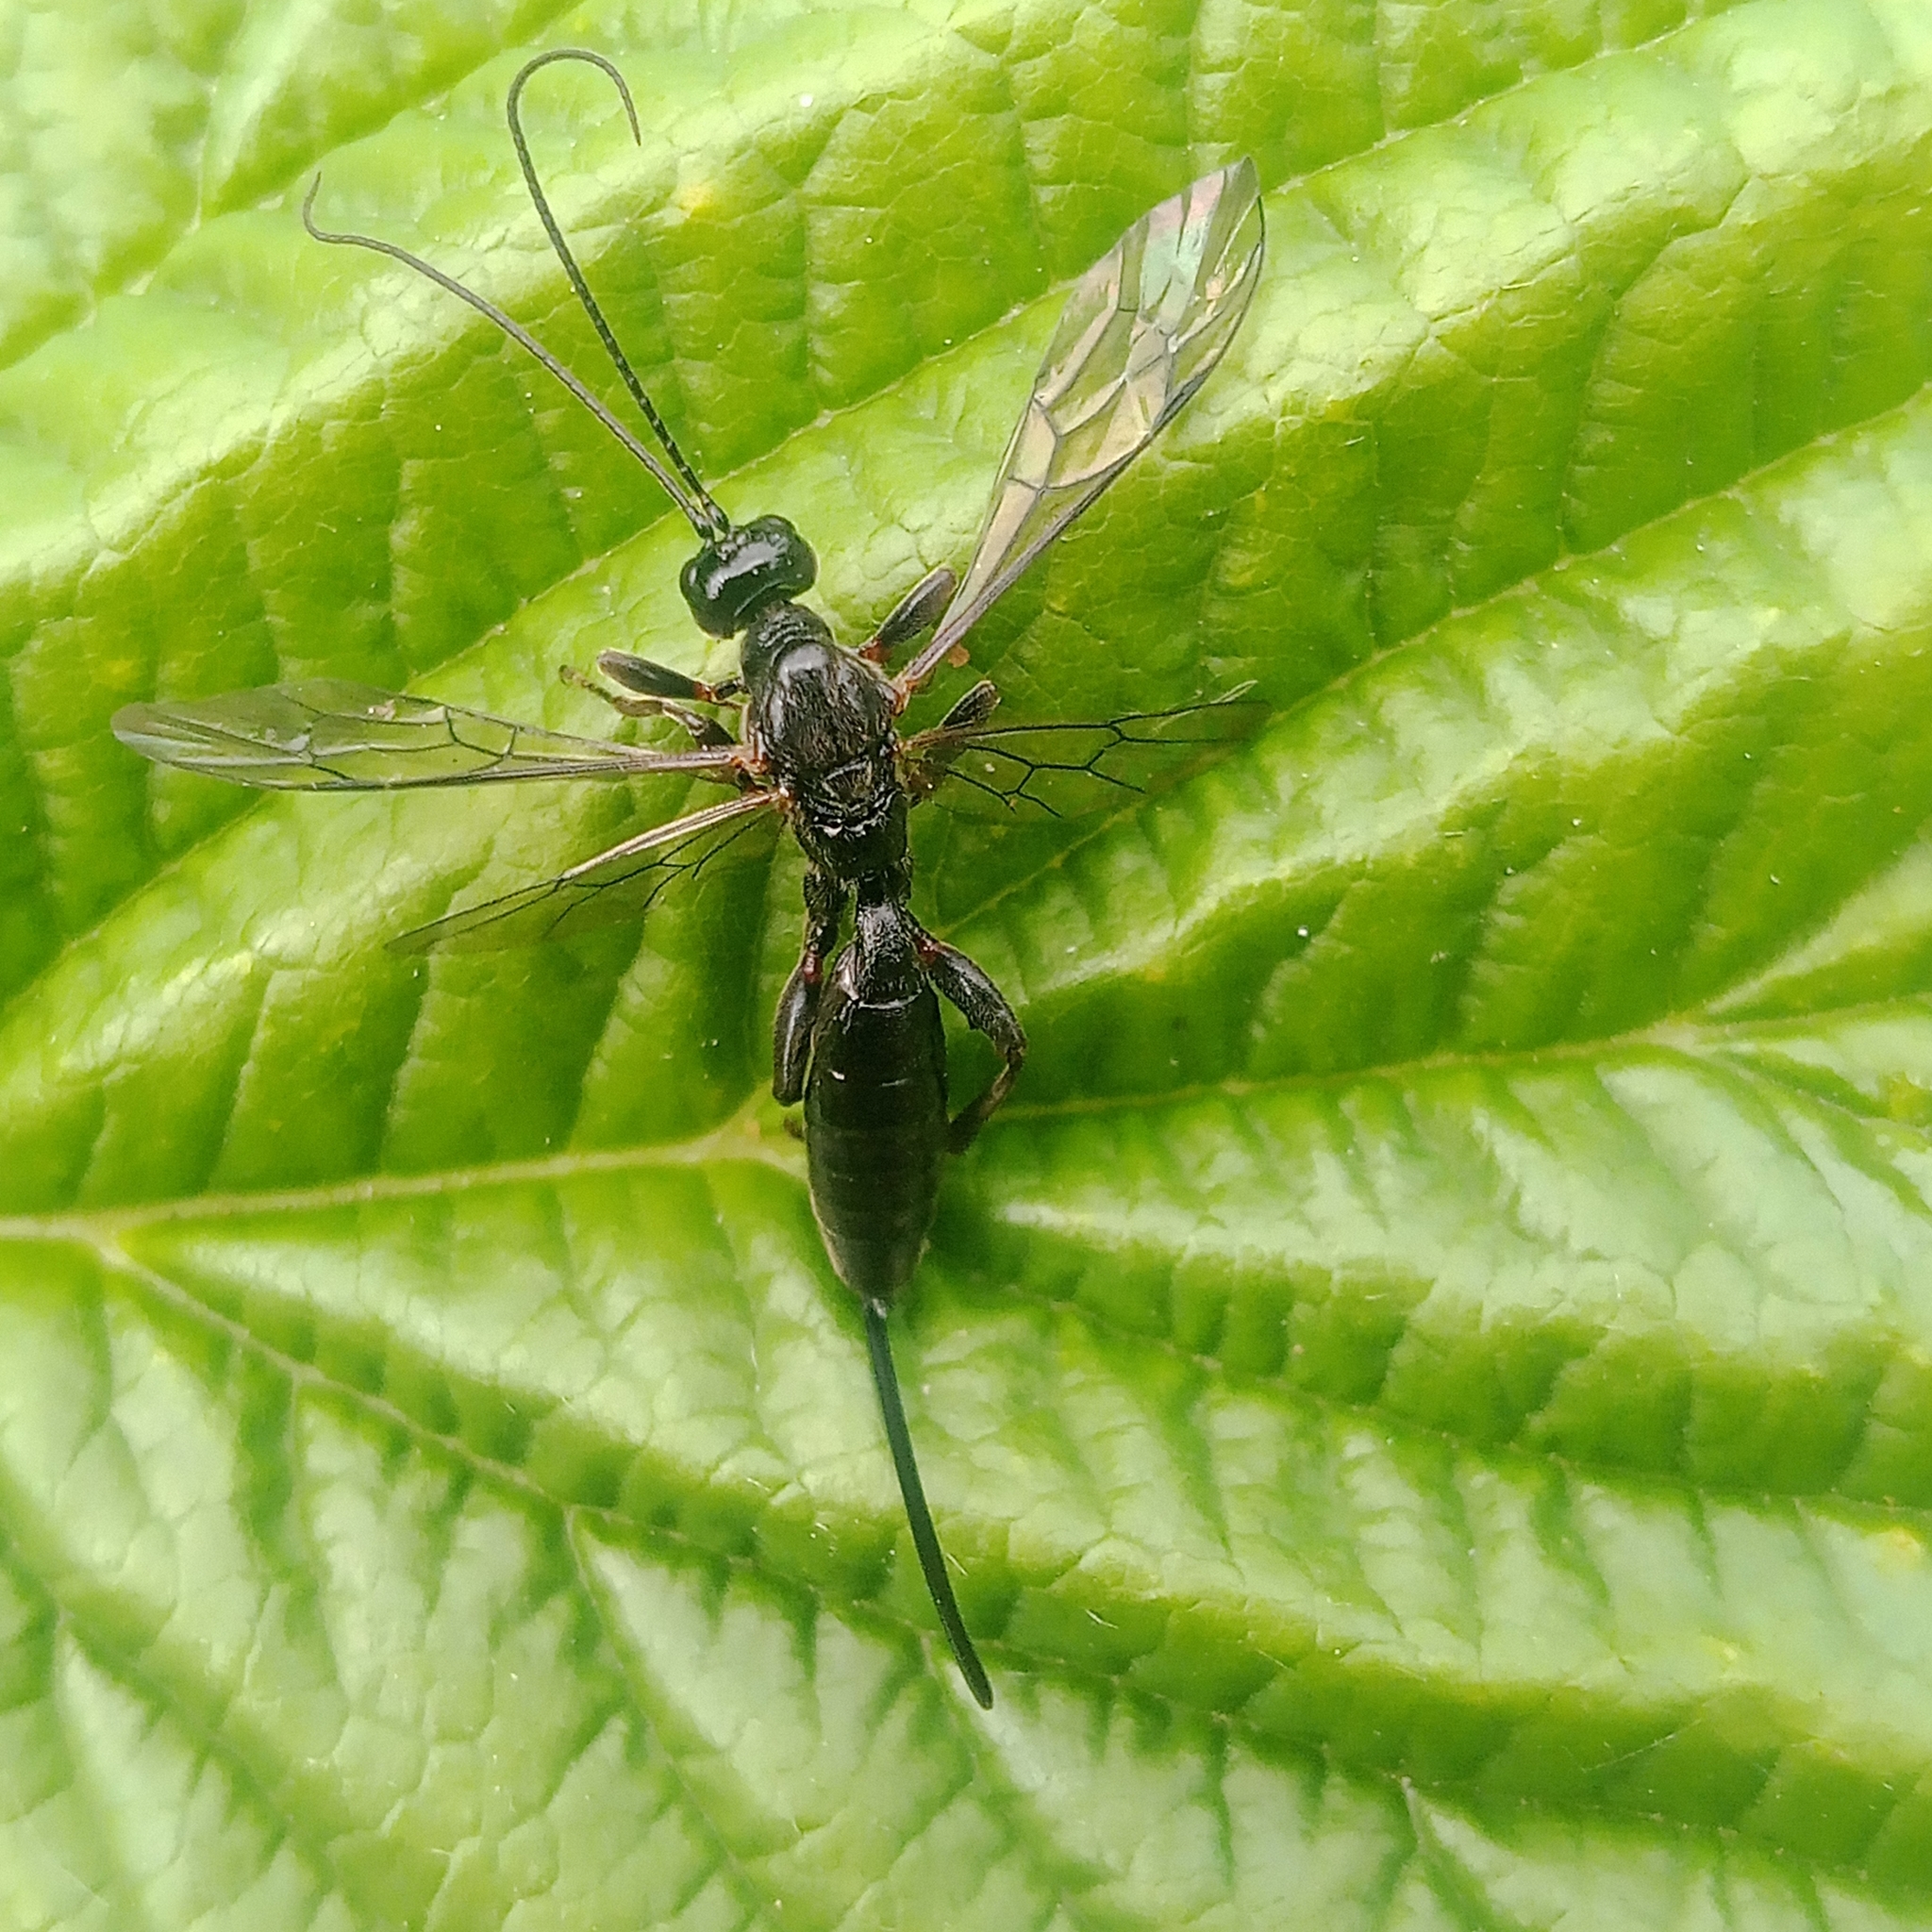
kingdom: Animalia
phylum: Arthropoda
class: Insecta
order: Hymenoptera
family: Ichneumonidae
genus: Odontocolon
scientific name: Odontocolon spinipes
